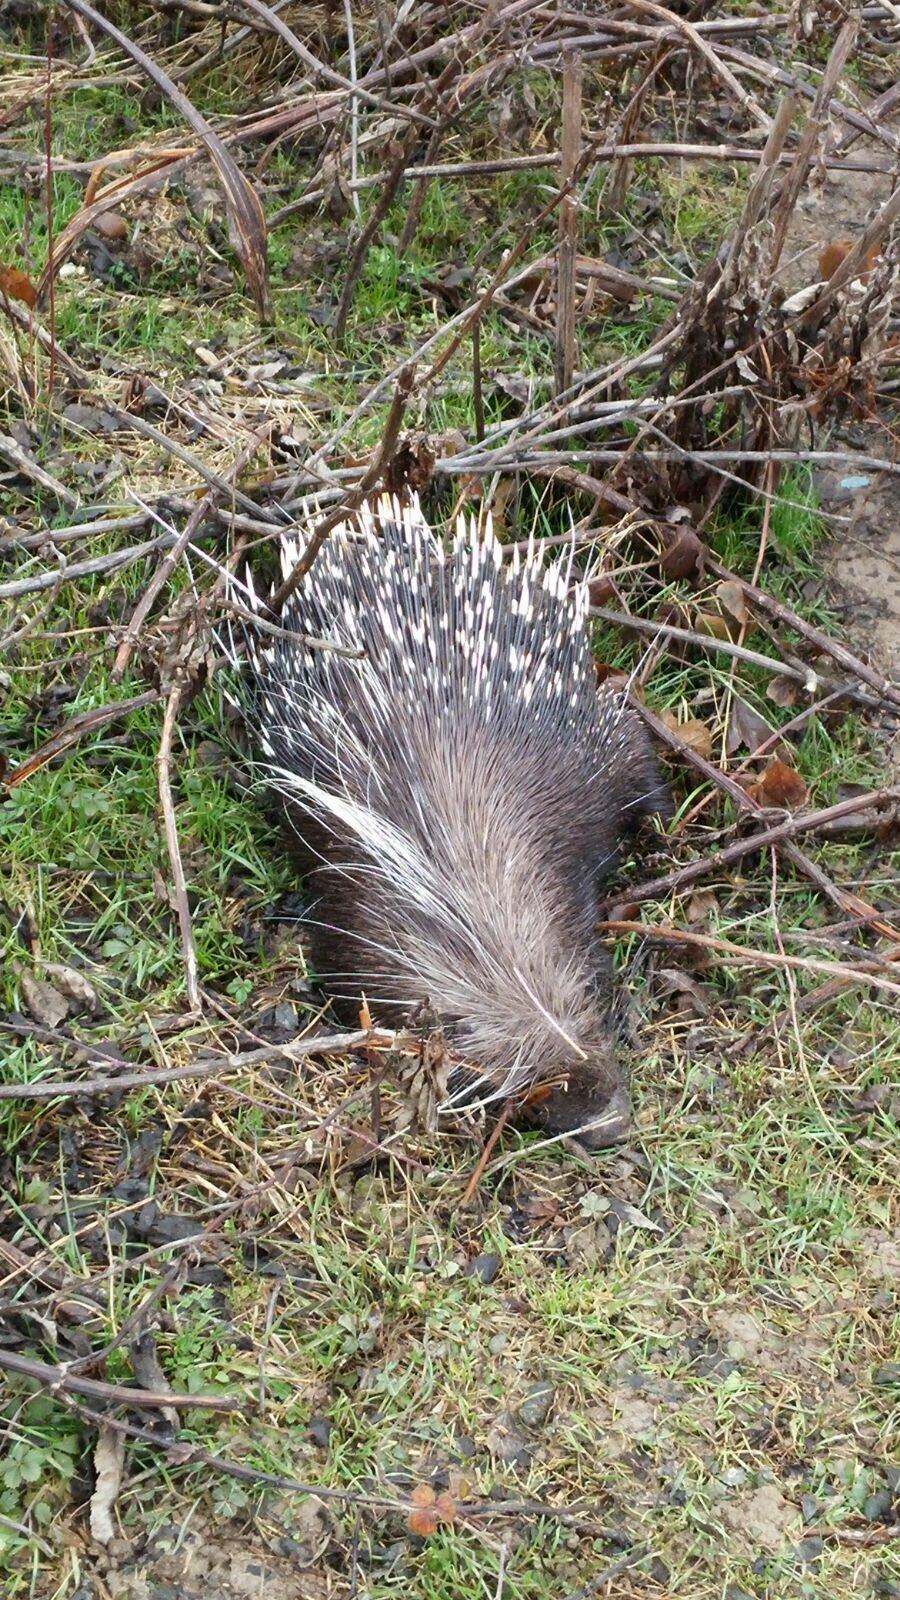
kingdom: Animalia
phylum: Chordata
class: Mammalia
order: Rodentia
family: Hystricidae
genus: Hystrix
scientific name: Hystrix cristata
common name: Crested porcupine
